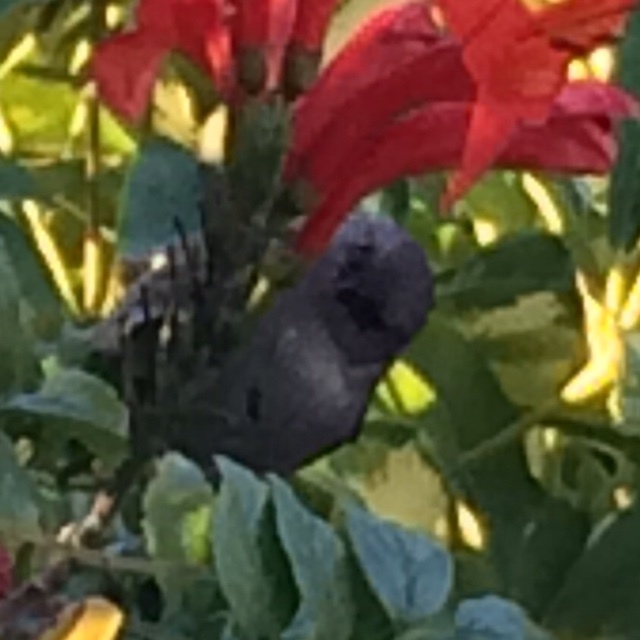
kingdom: Animalia
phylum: Chordata
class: Aves
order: Passeriformes
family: Aegithalidae
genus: Psaltriparus
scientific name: Psaltriparus minimus
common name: American bushtit
